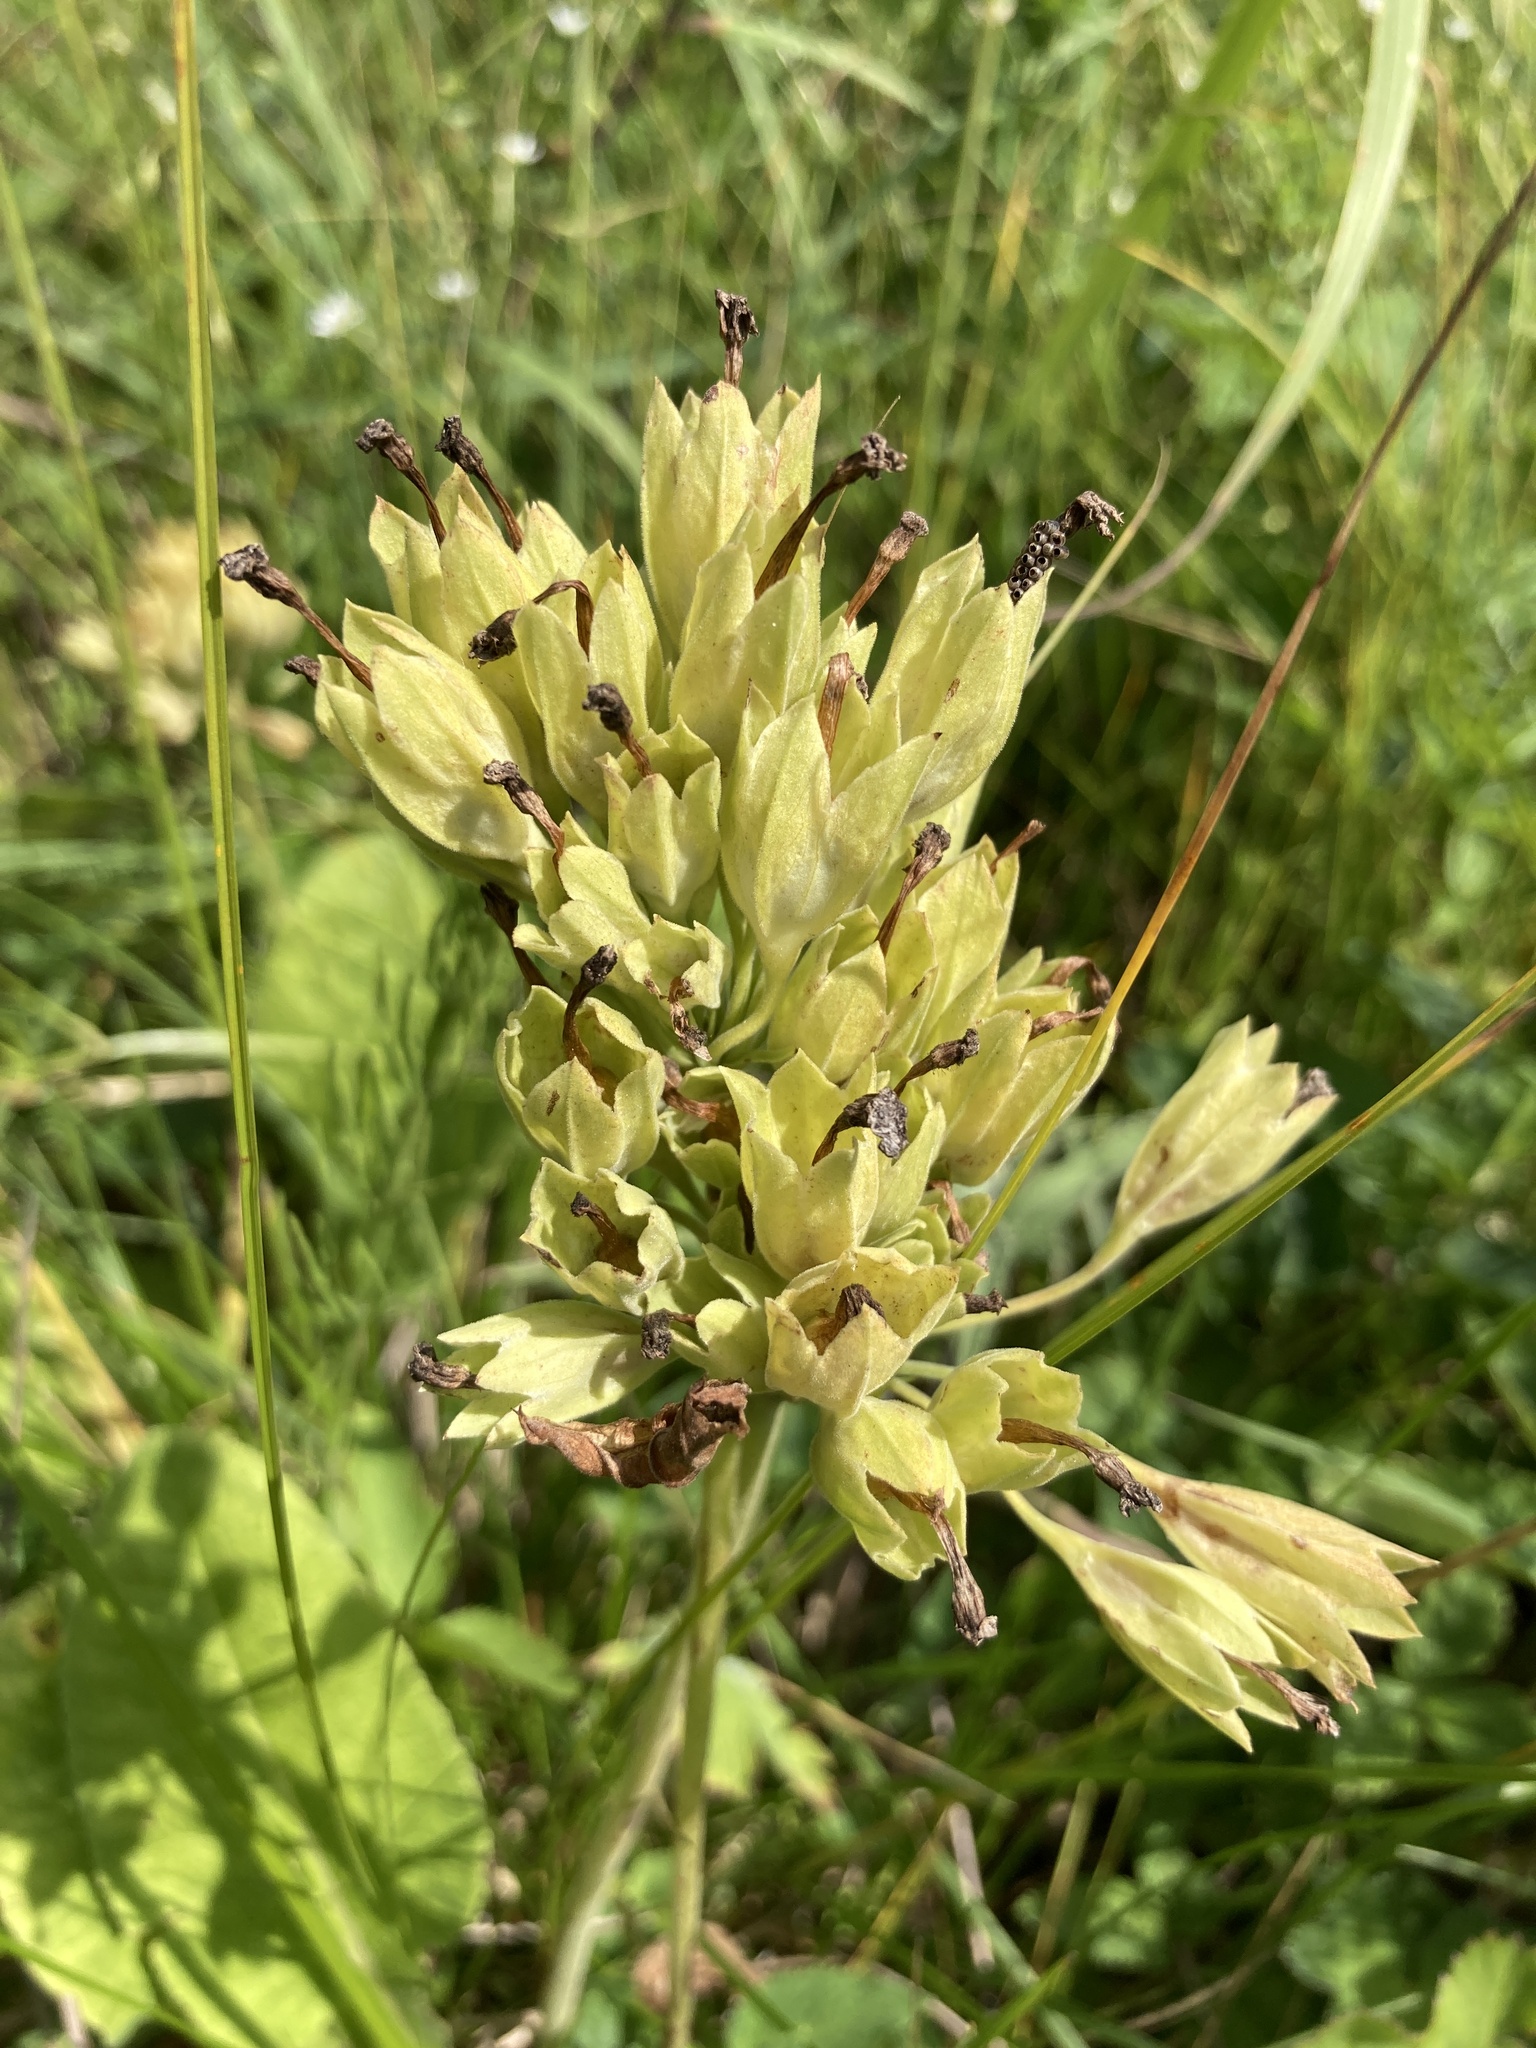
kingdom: Plantae
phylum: Tracheophyta
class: Magnoliopsida
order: Ericales
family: Primulaceae
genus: Primula
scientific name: Primula veris
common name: Cowslip
